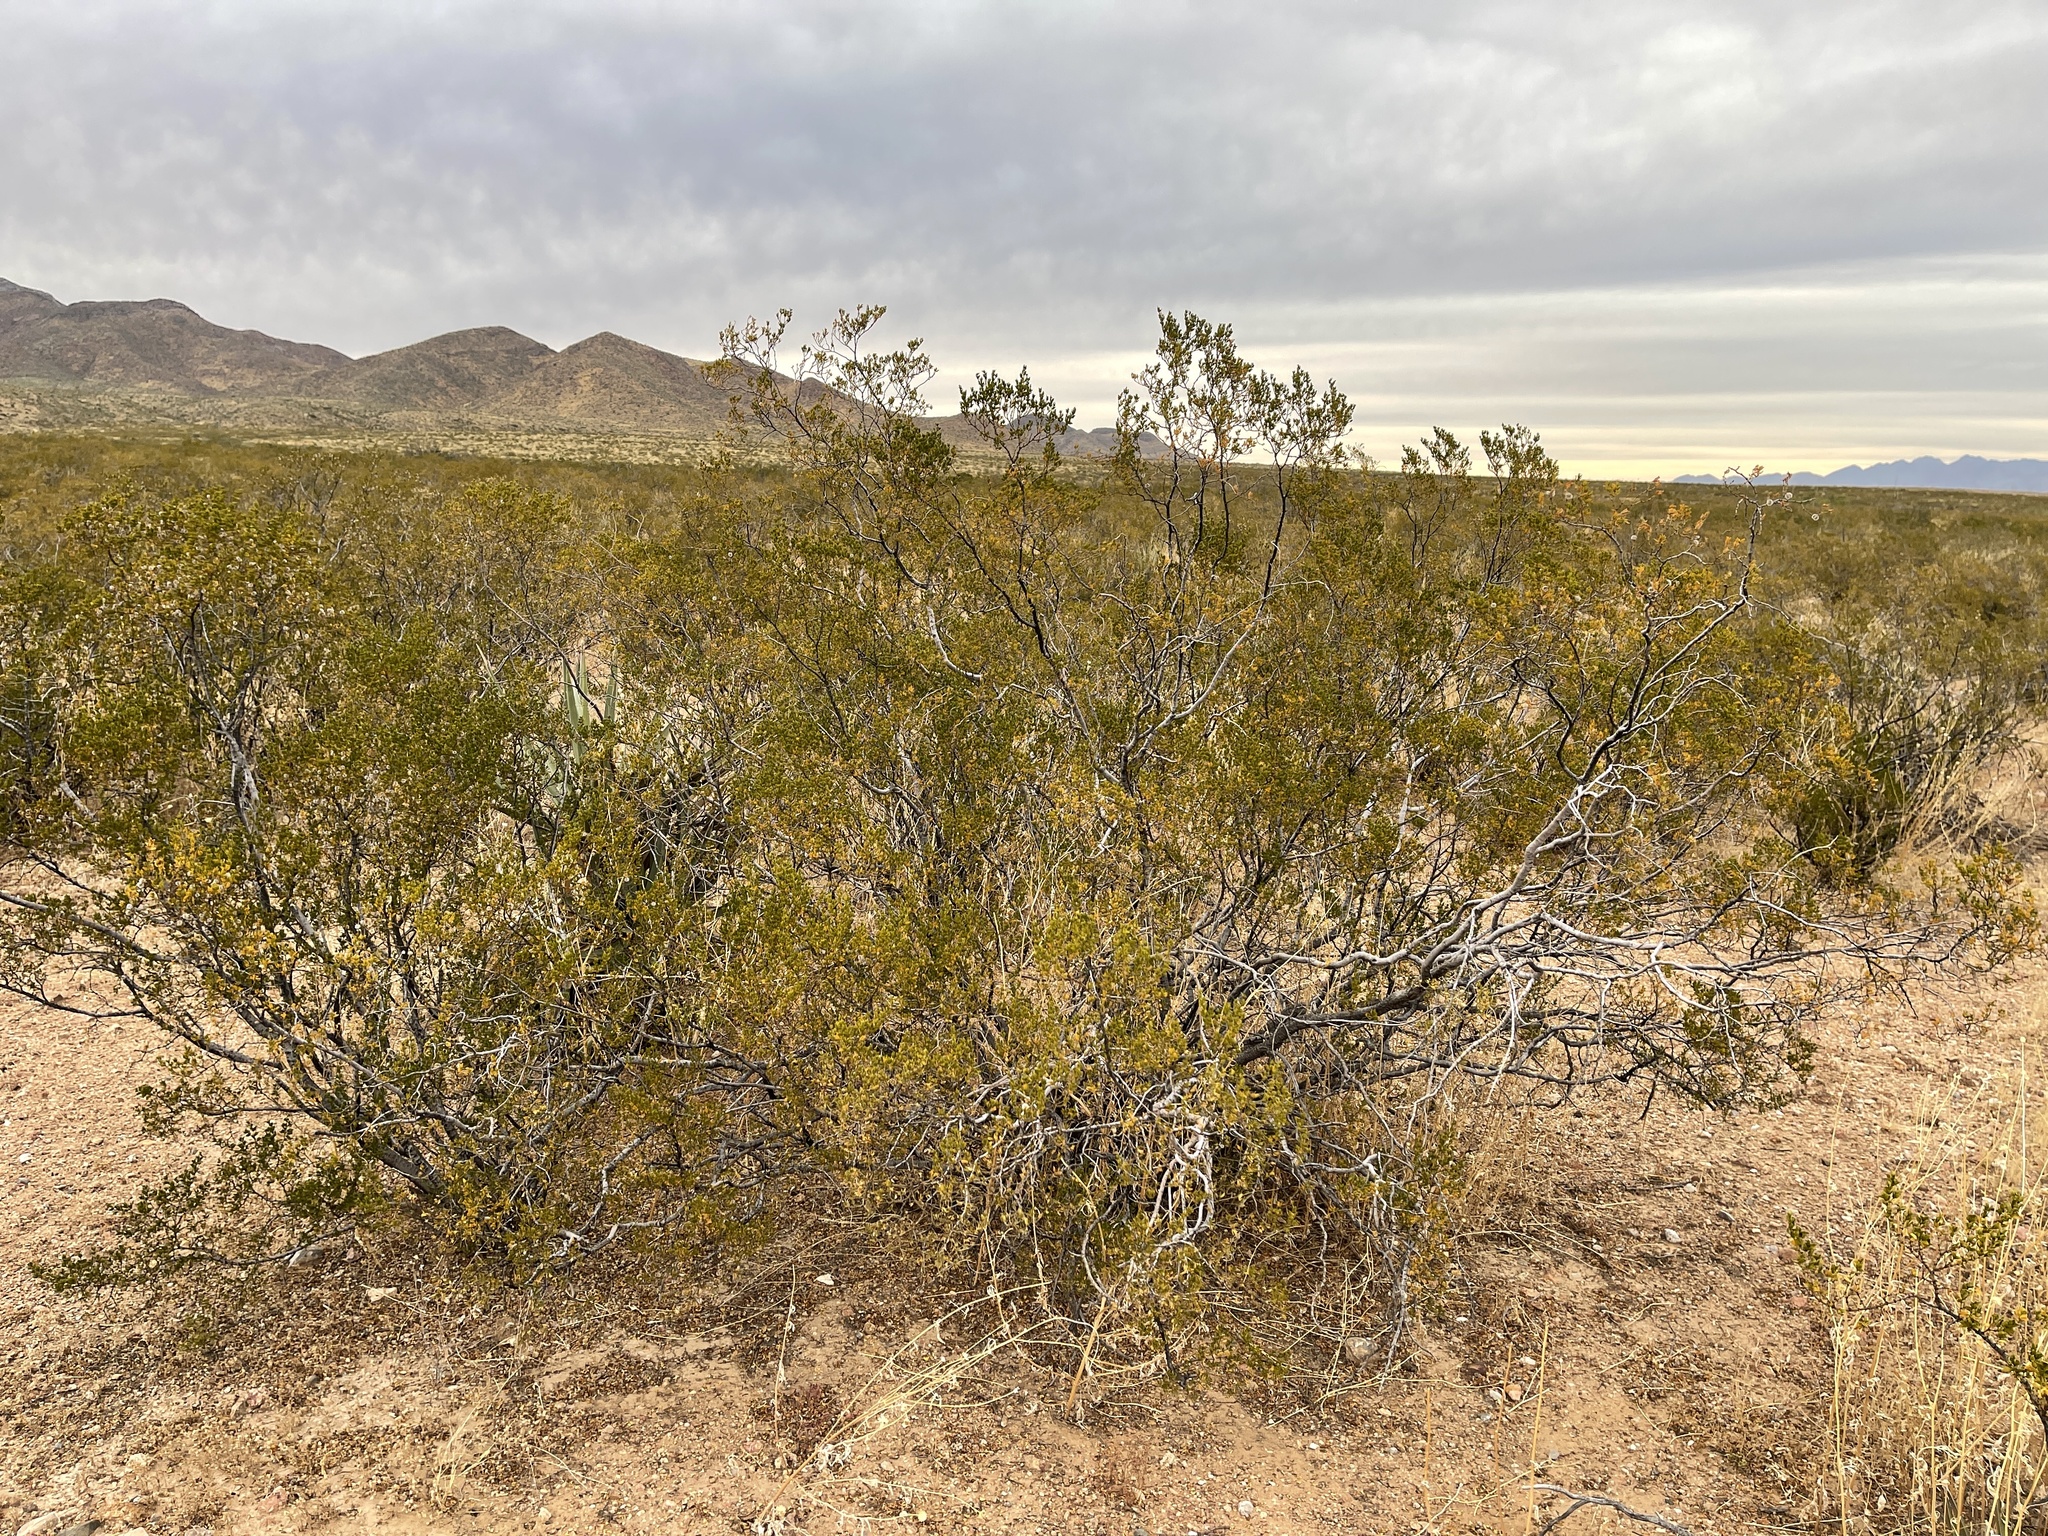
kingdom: Plantae
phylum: Tracheophyta
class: Magnoliopsida
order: Zygophyllales
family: Zygophyllaceae
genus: Larrea
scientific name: Larrea tridentata
